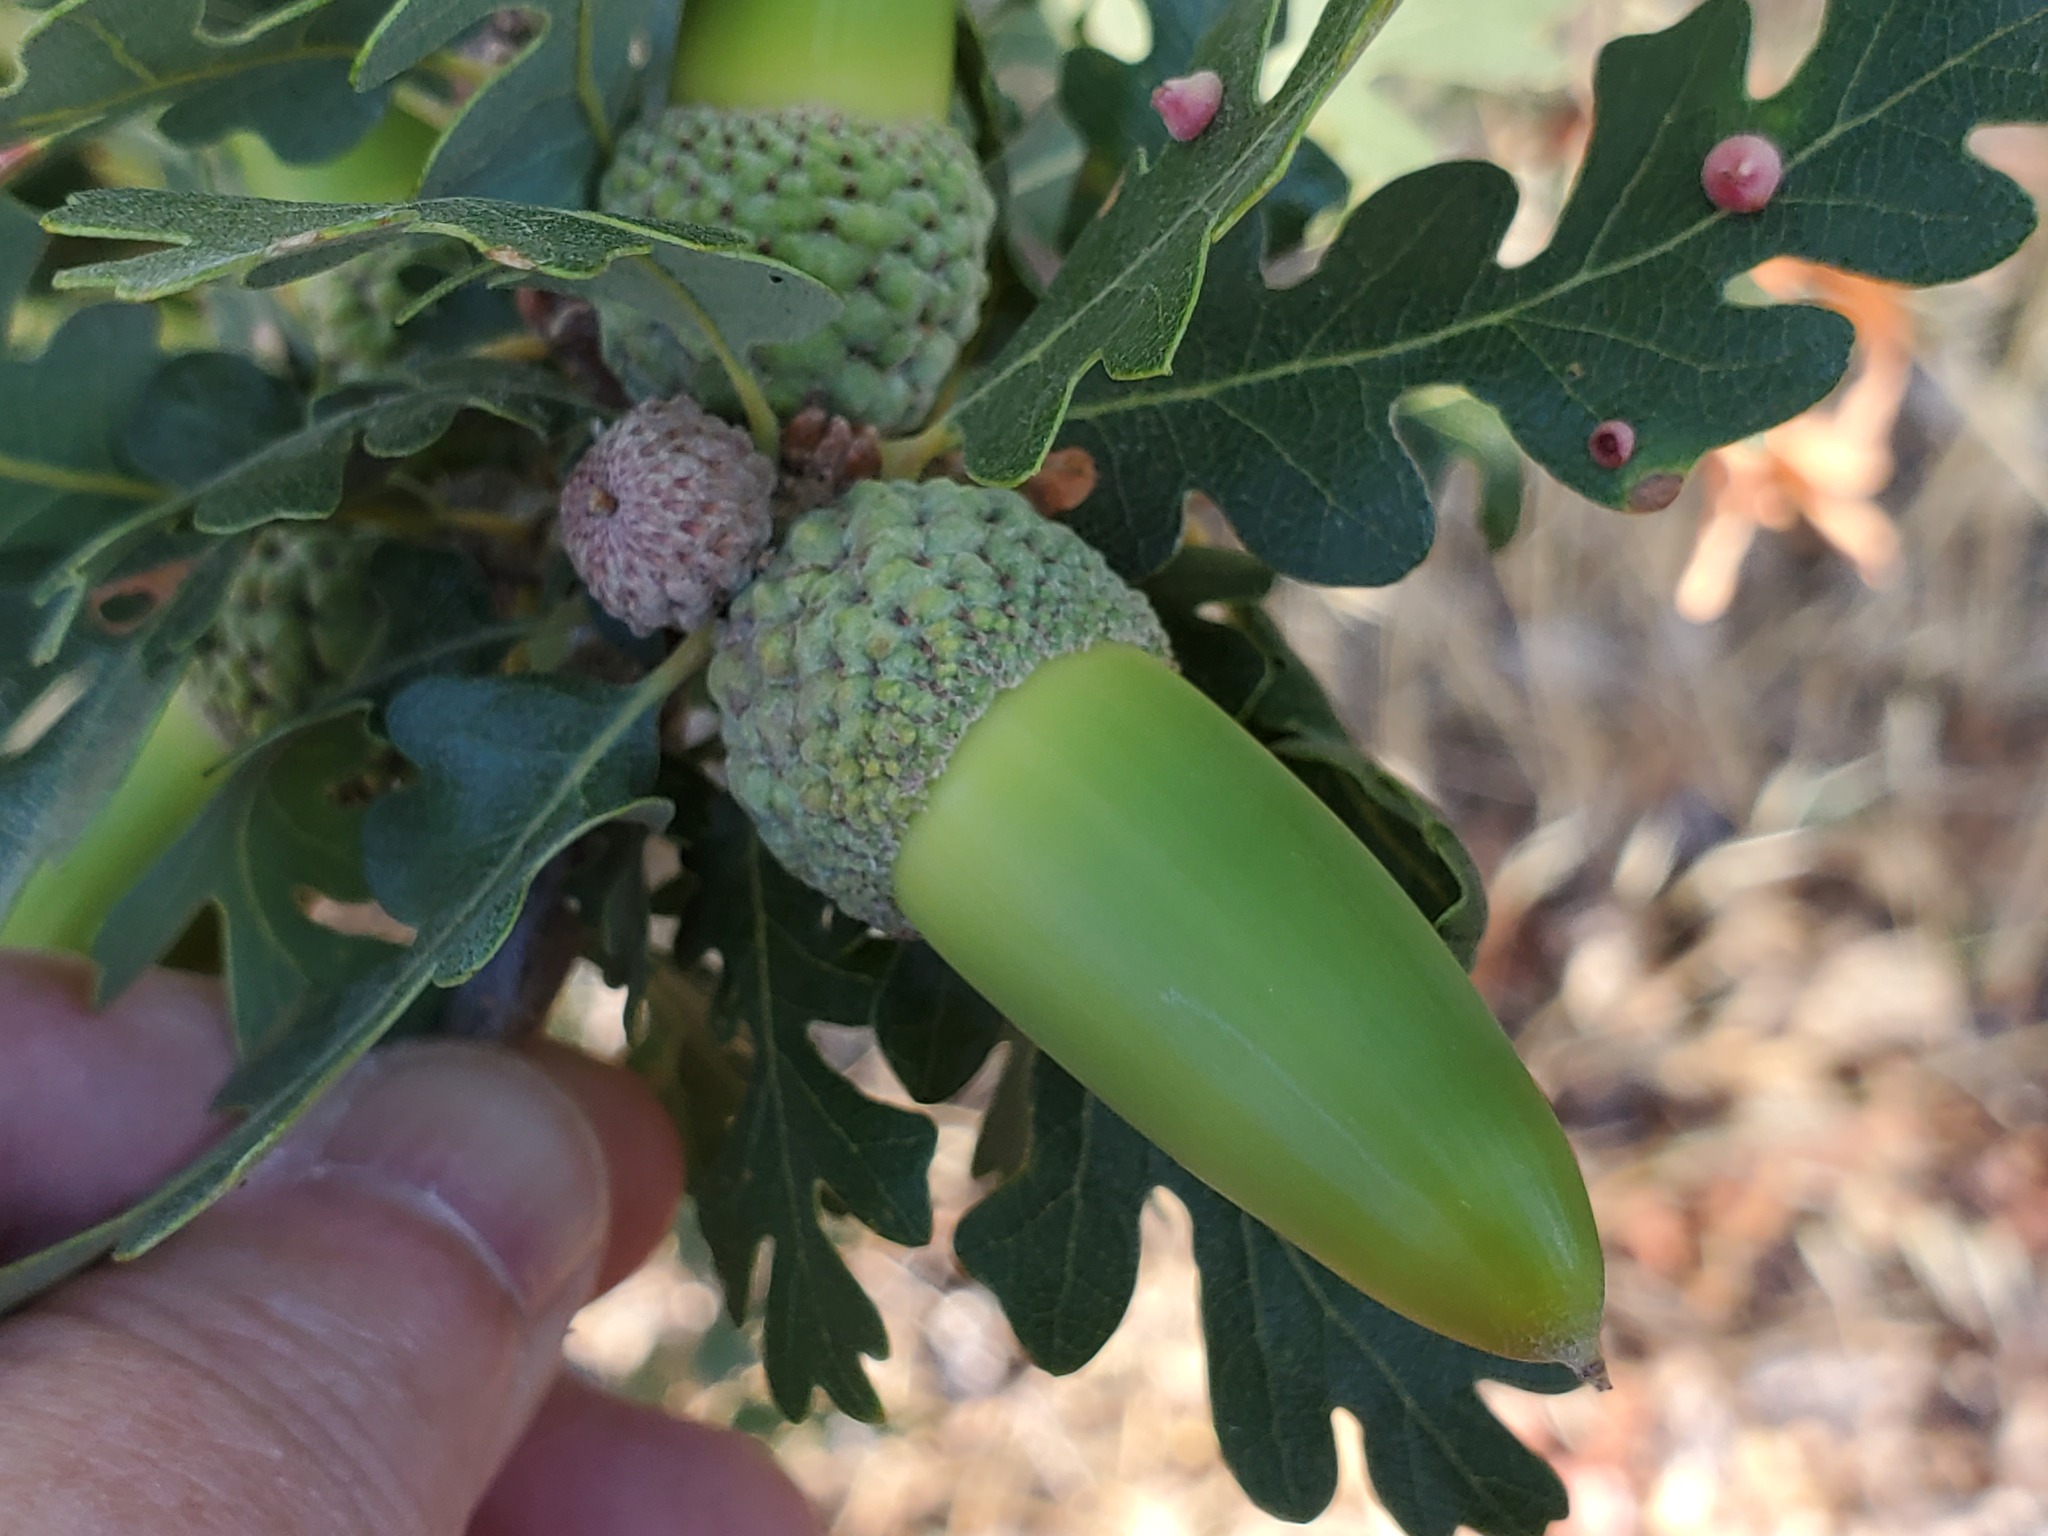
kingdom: Plantae
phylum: Tracheophyta
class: Magnoliopsida
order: Fagales
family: Fagaceae
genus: Quercus
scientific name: Quercus lobata
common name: Valley oak
